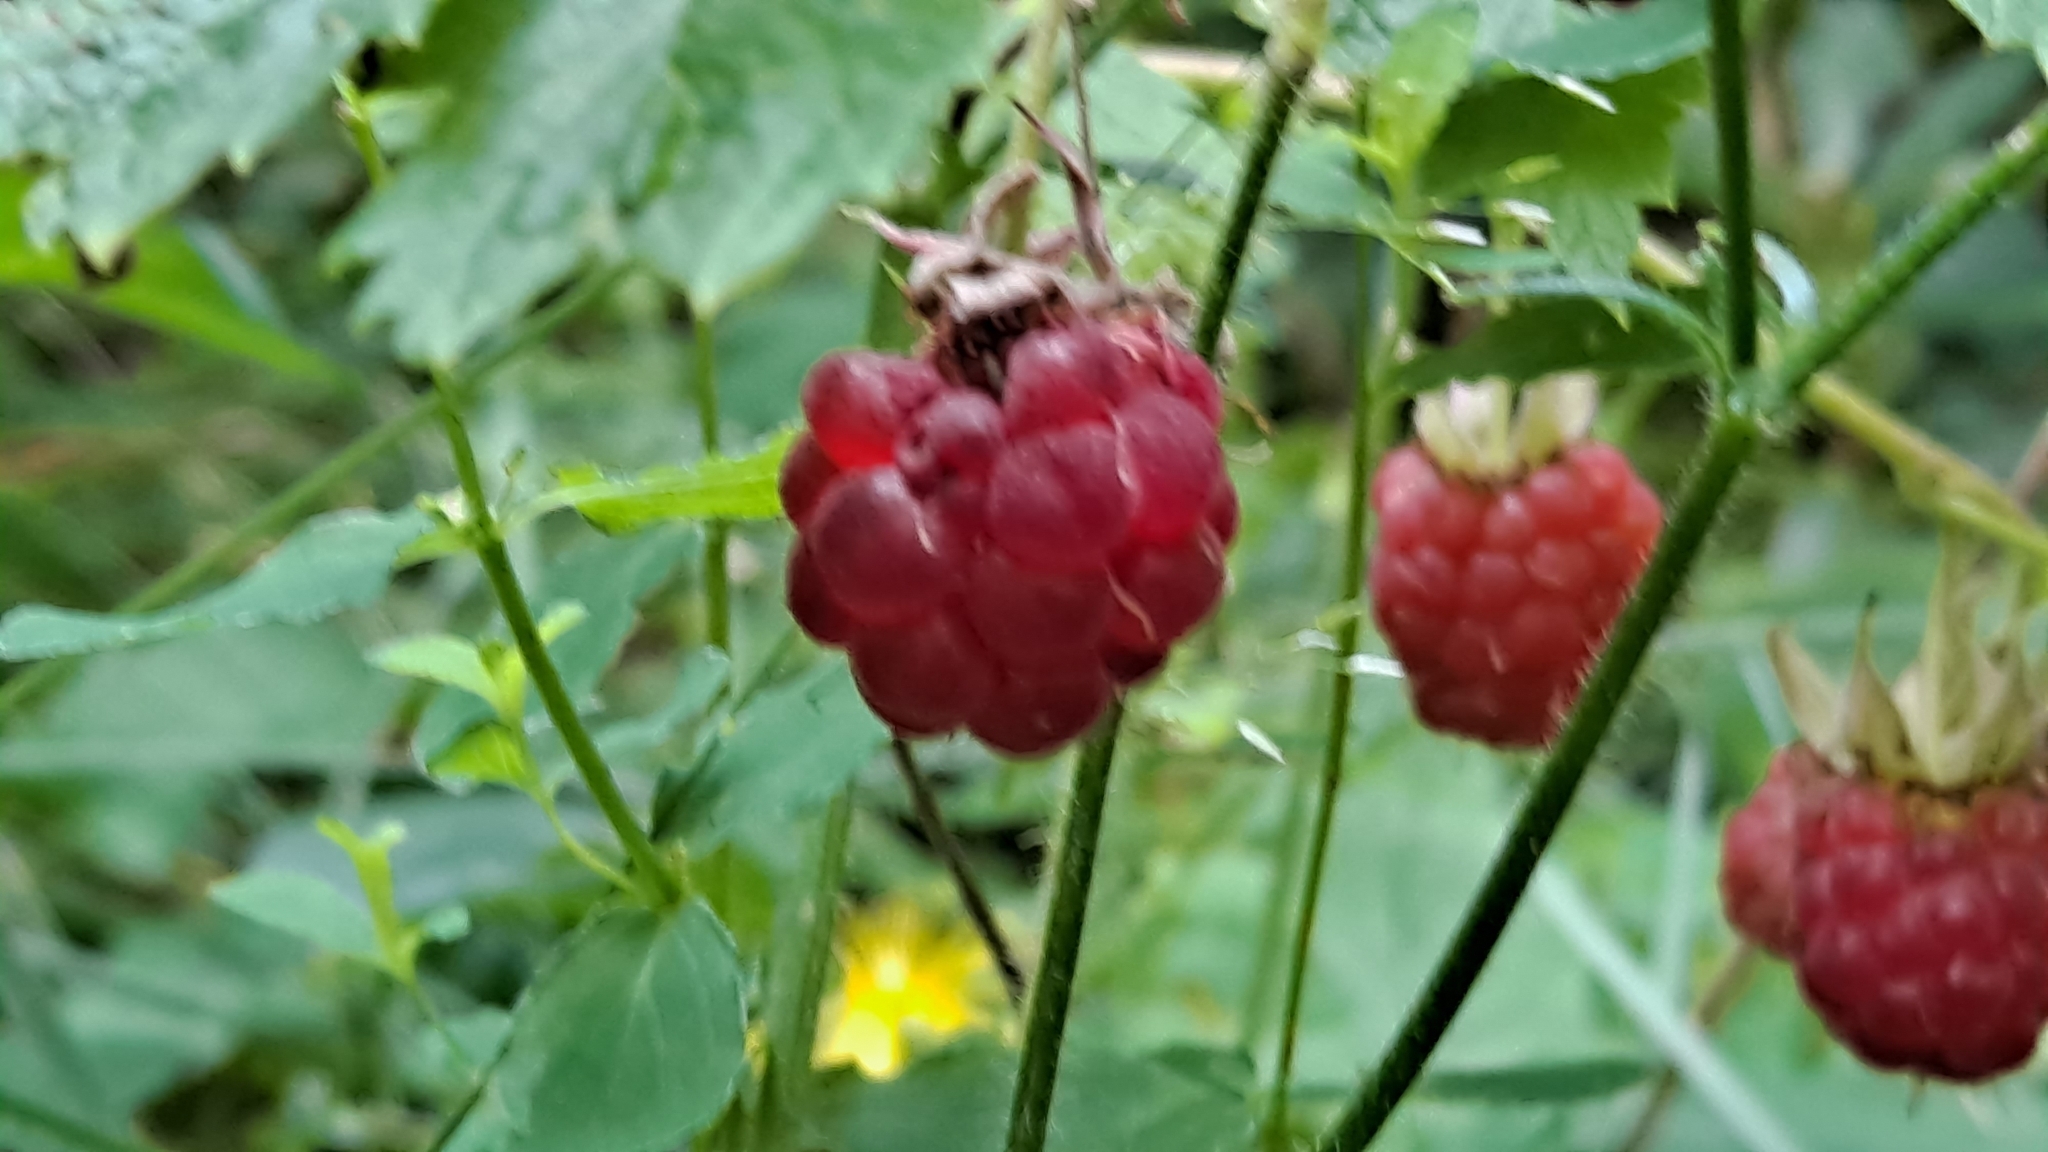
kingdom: Plantae
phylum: Tracheophyta
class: Magnoliopsida
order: Rosales
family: Rosaceae
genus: Rubus
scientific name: Rubus idaeus
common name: Raspberry
